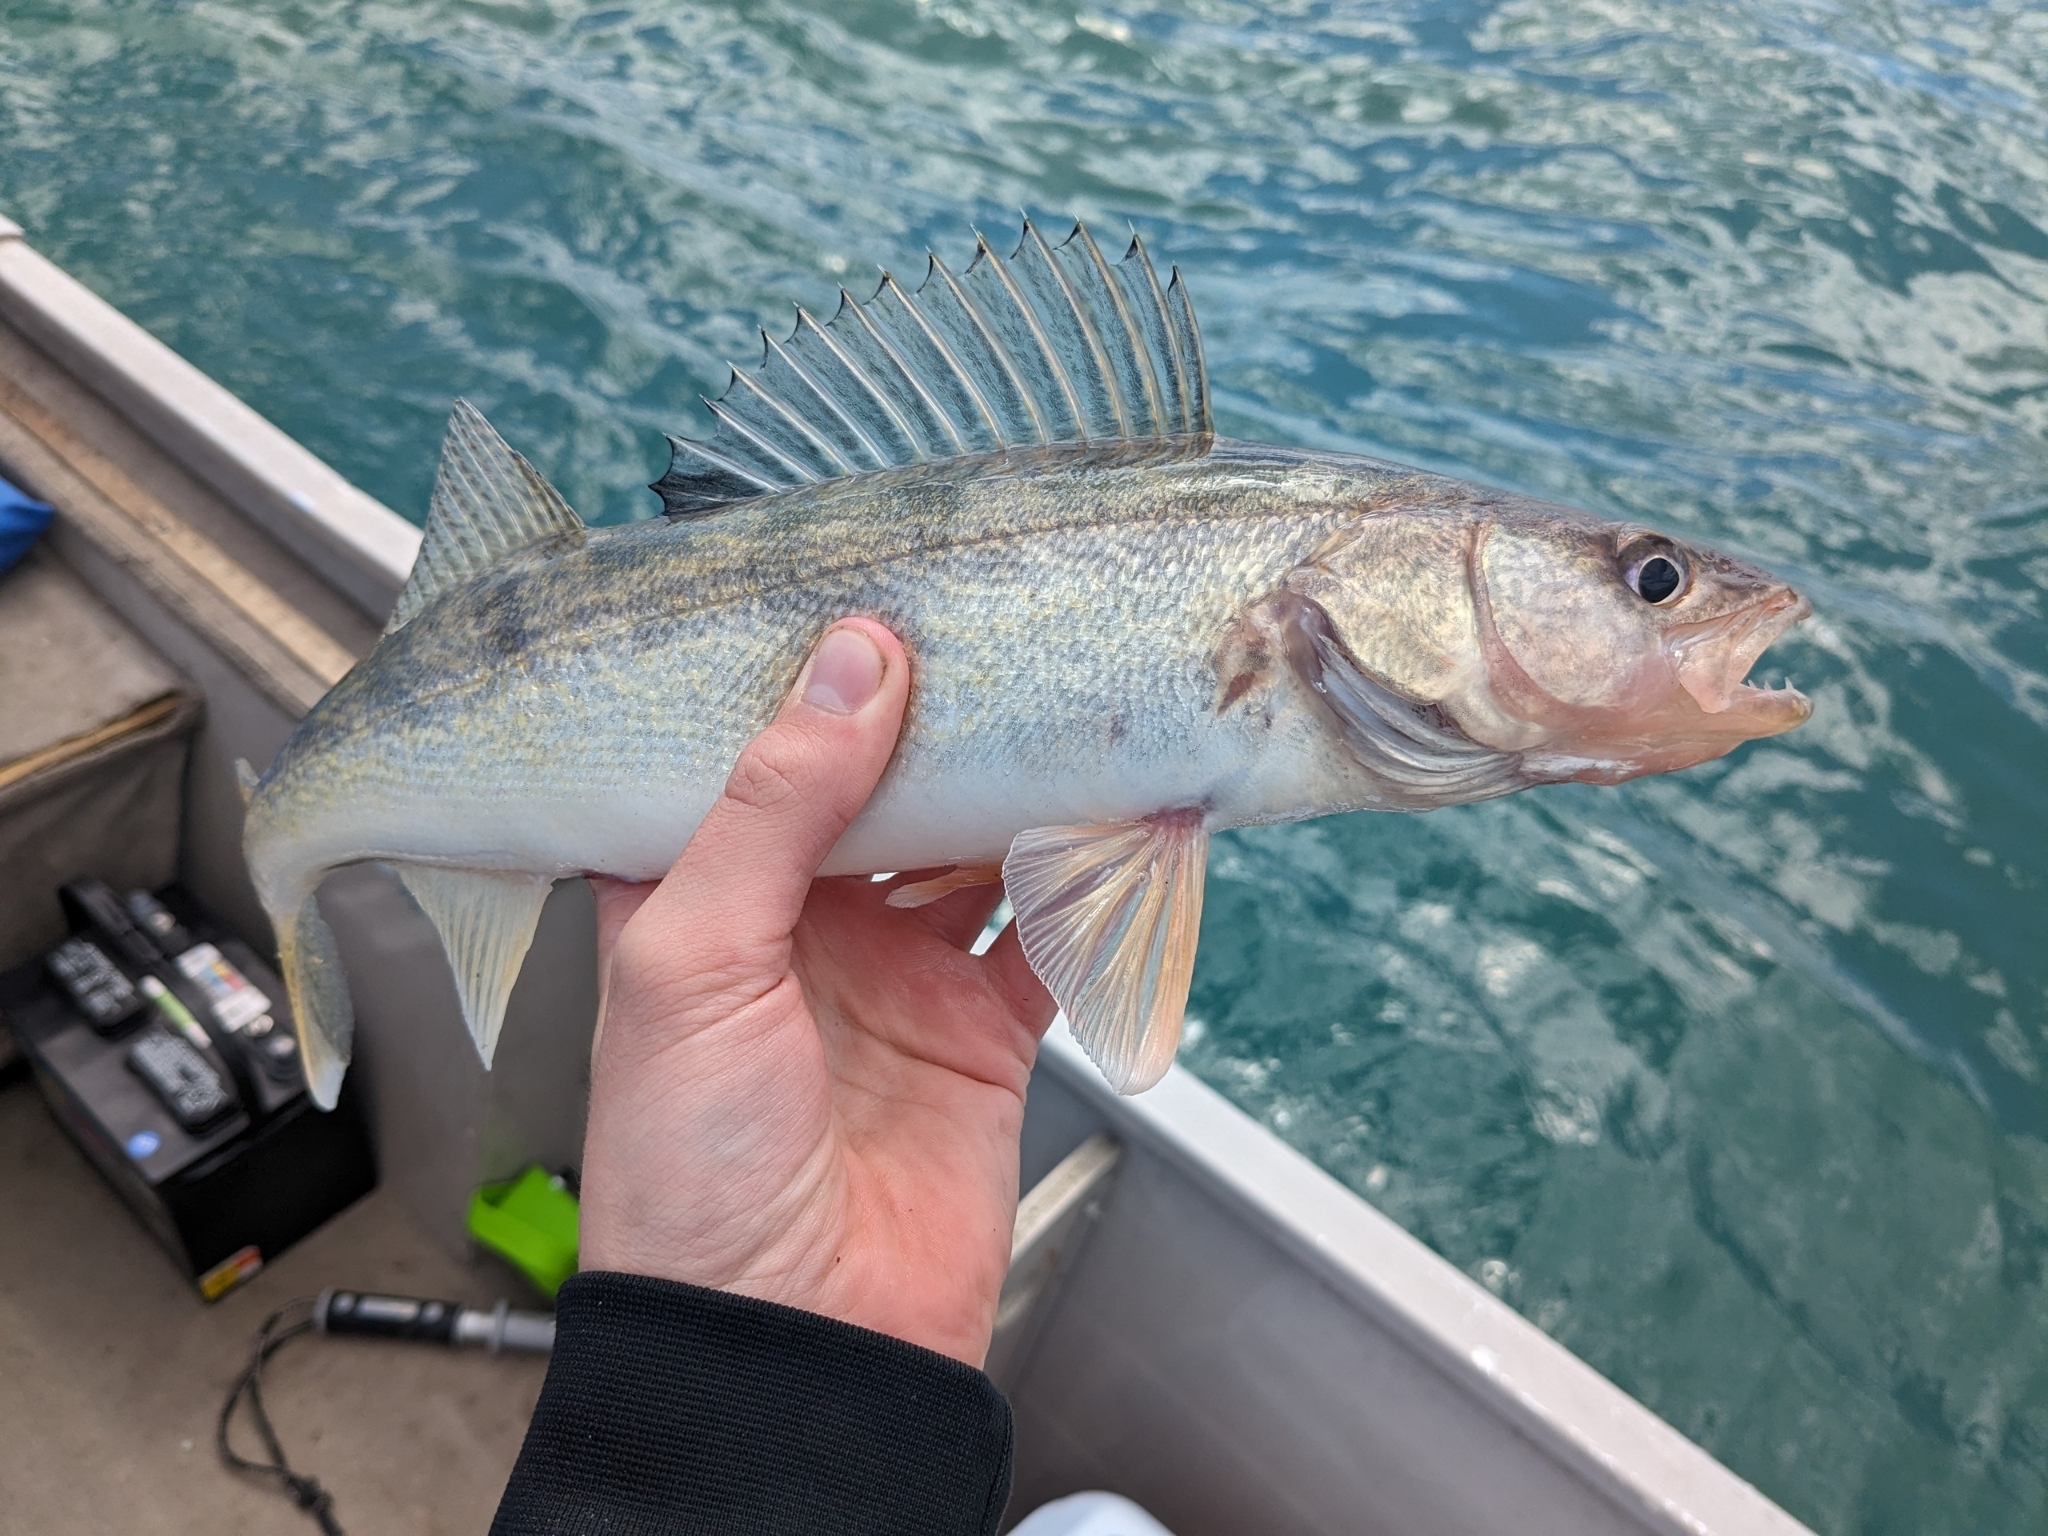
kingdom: Animalia
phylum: Chordata
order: Perciformes
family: Percidae
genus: Sander
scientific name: Sander vitreus
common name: Walleye
